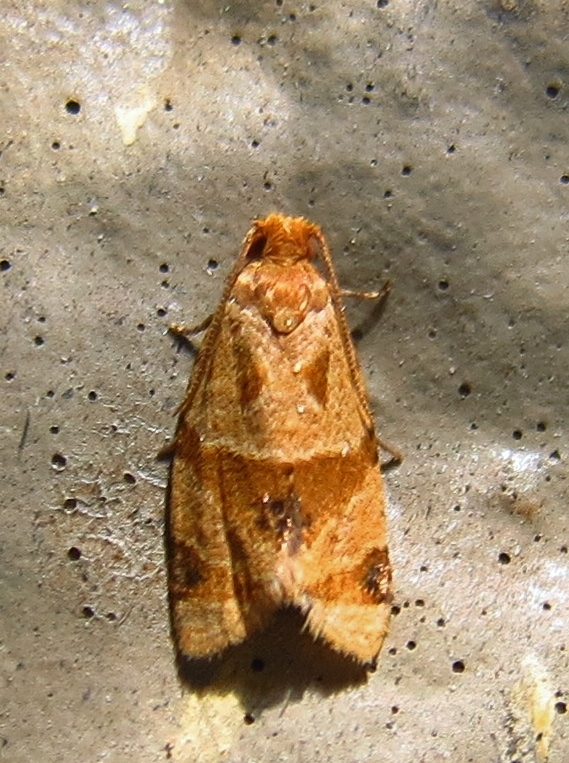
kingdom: Animalia
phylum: Arthropoda
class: Insecta
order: Lepidoptera
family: Tortricidae
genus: Clepsis
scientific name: Clepsis peritana
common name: Garden tortrix
